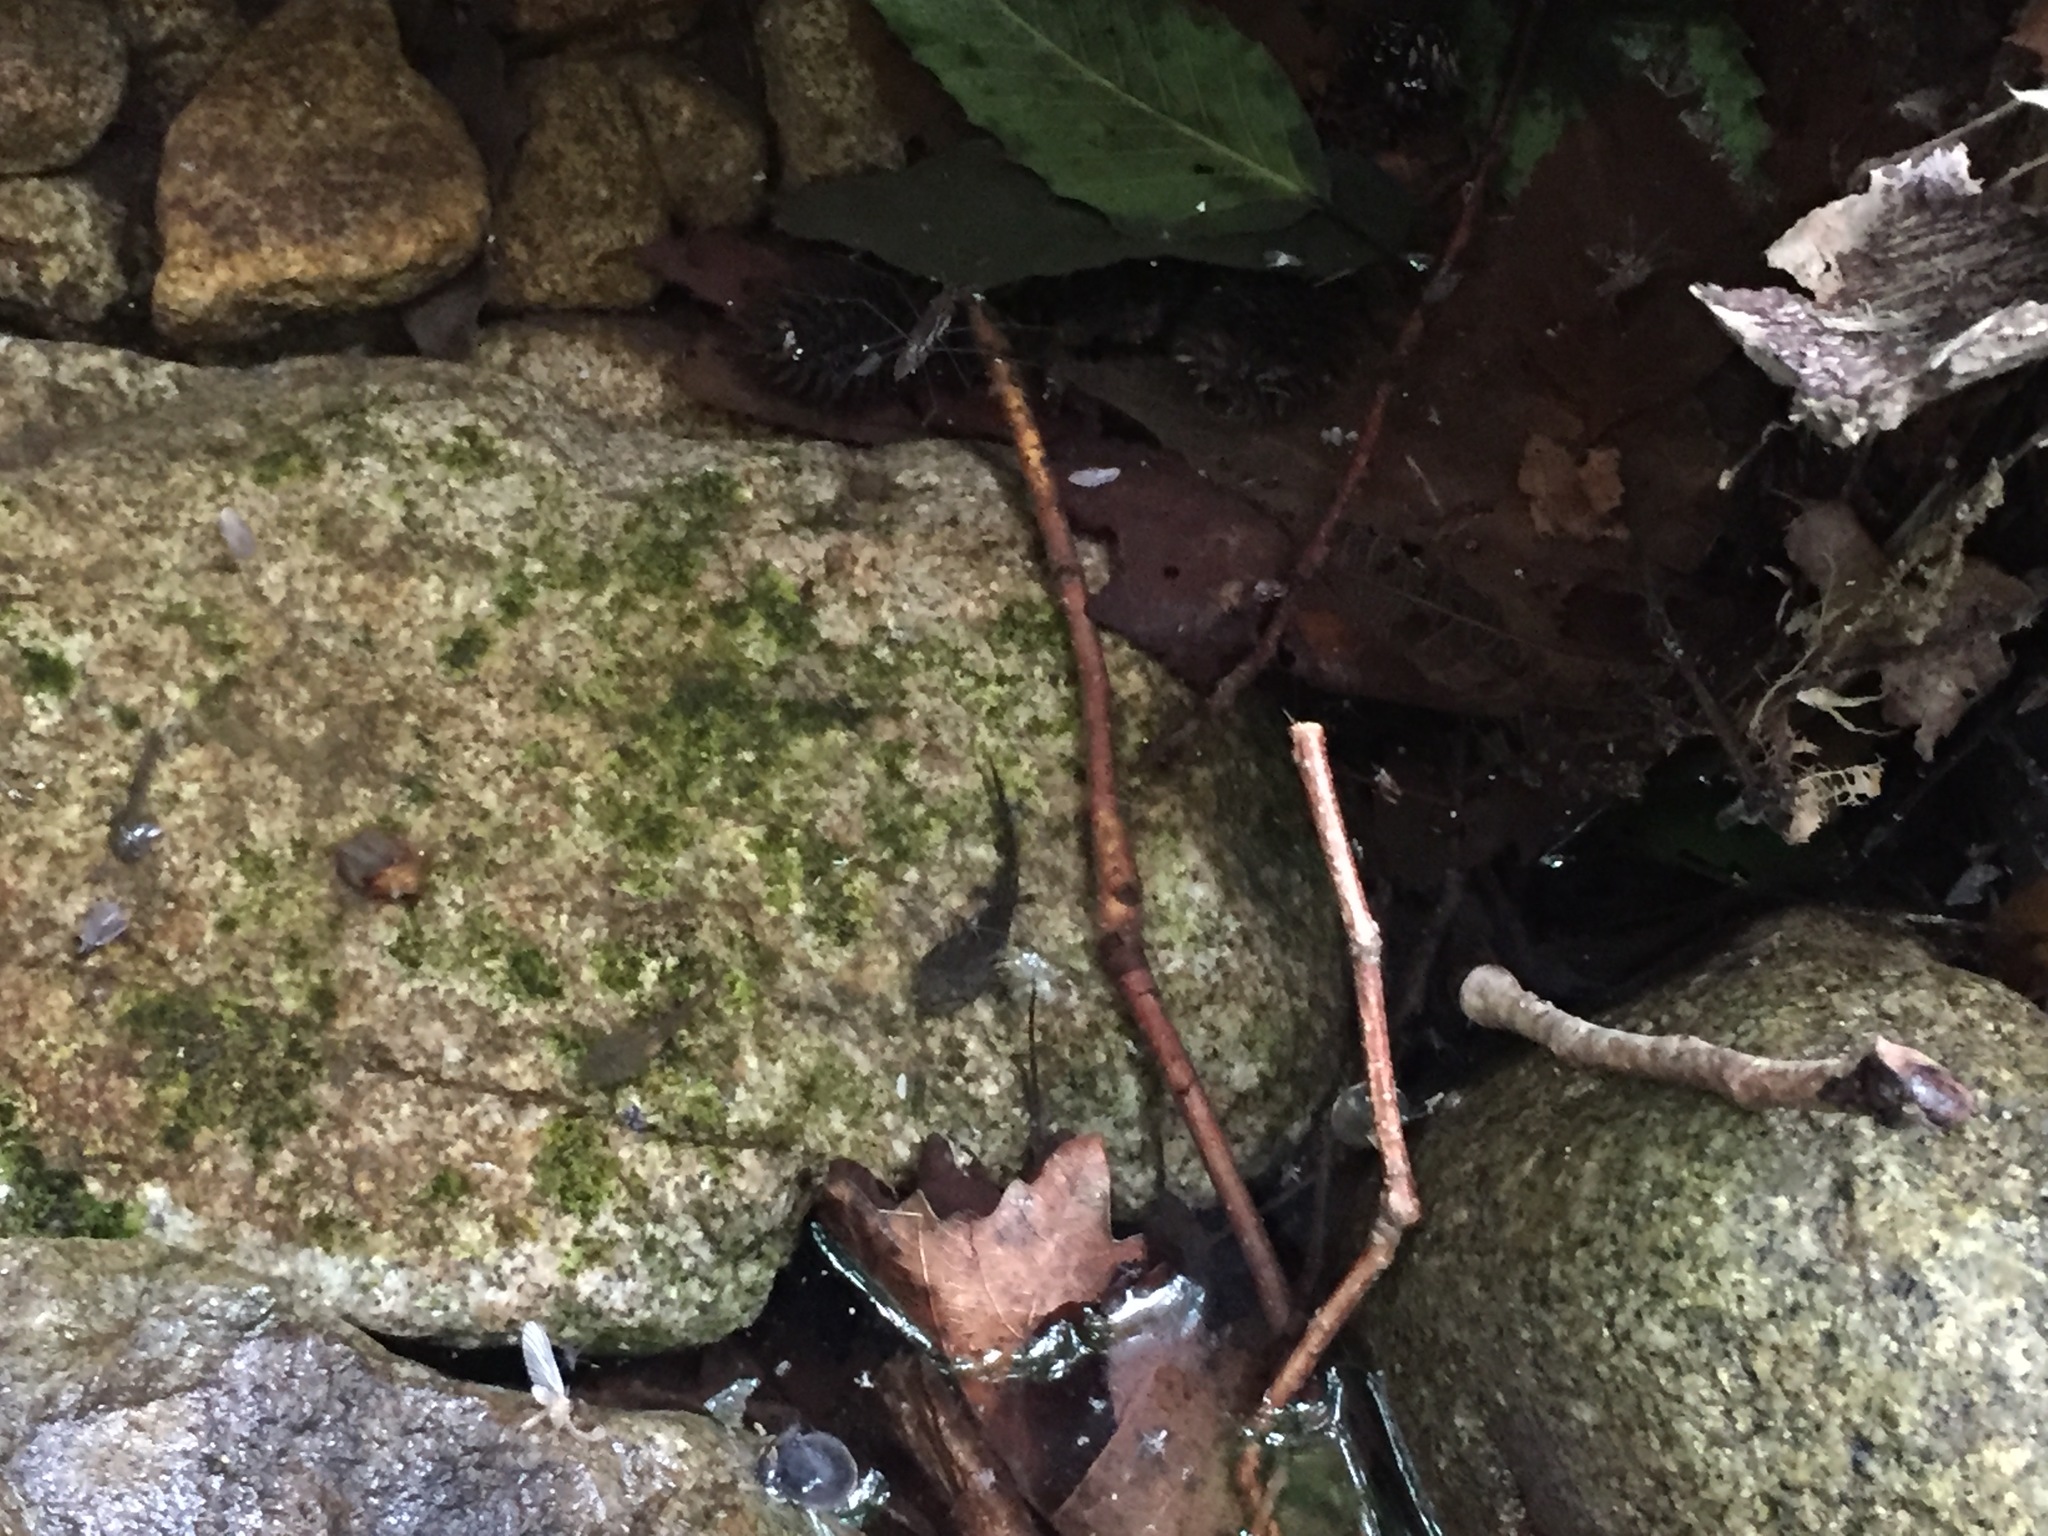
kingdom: Animalia
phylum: Chordata
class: Amphibia
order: Caudata
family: Hynobiidae
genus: Hynobius
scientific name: Hynobius leechii
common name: Gensan salamander
